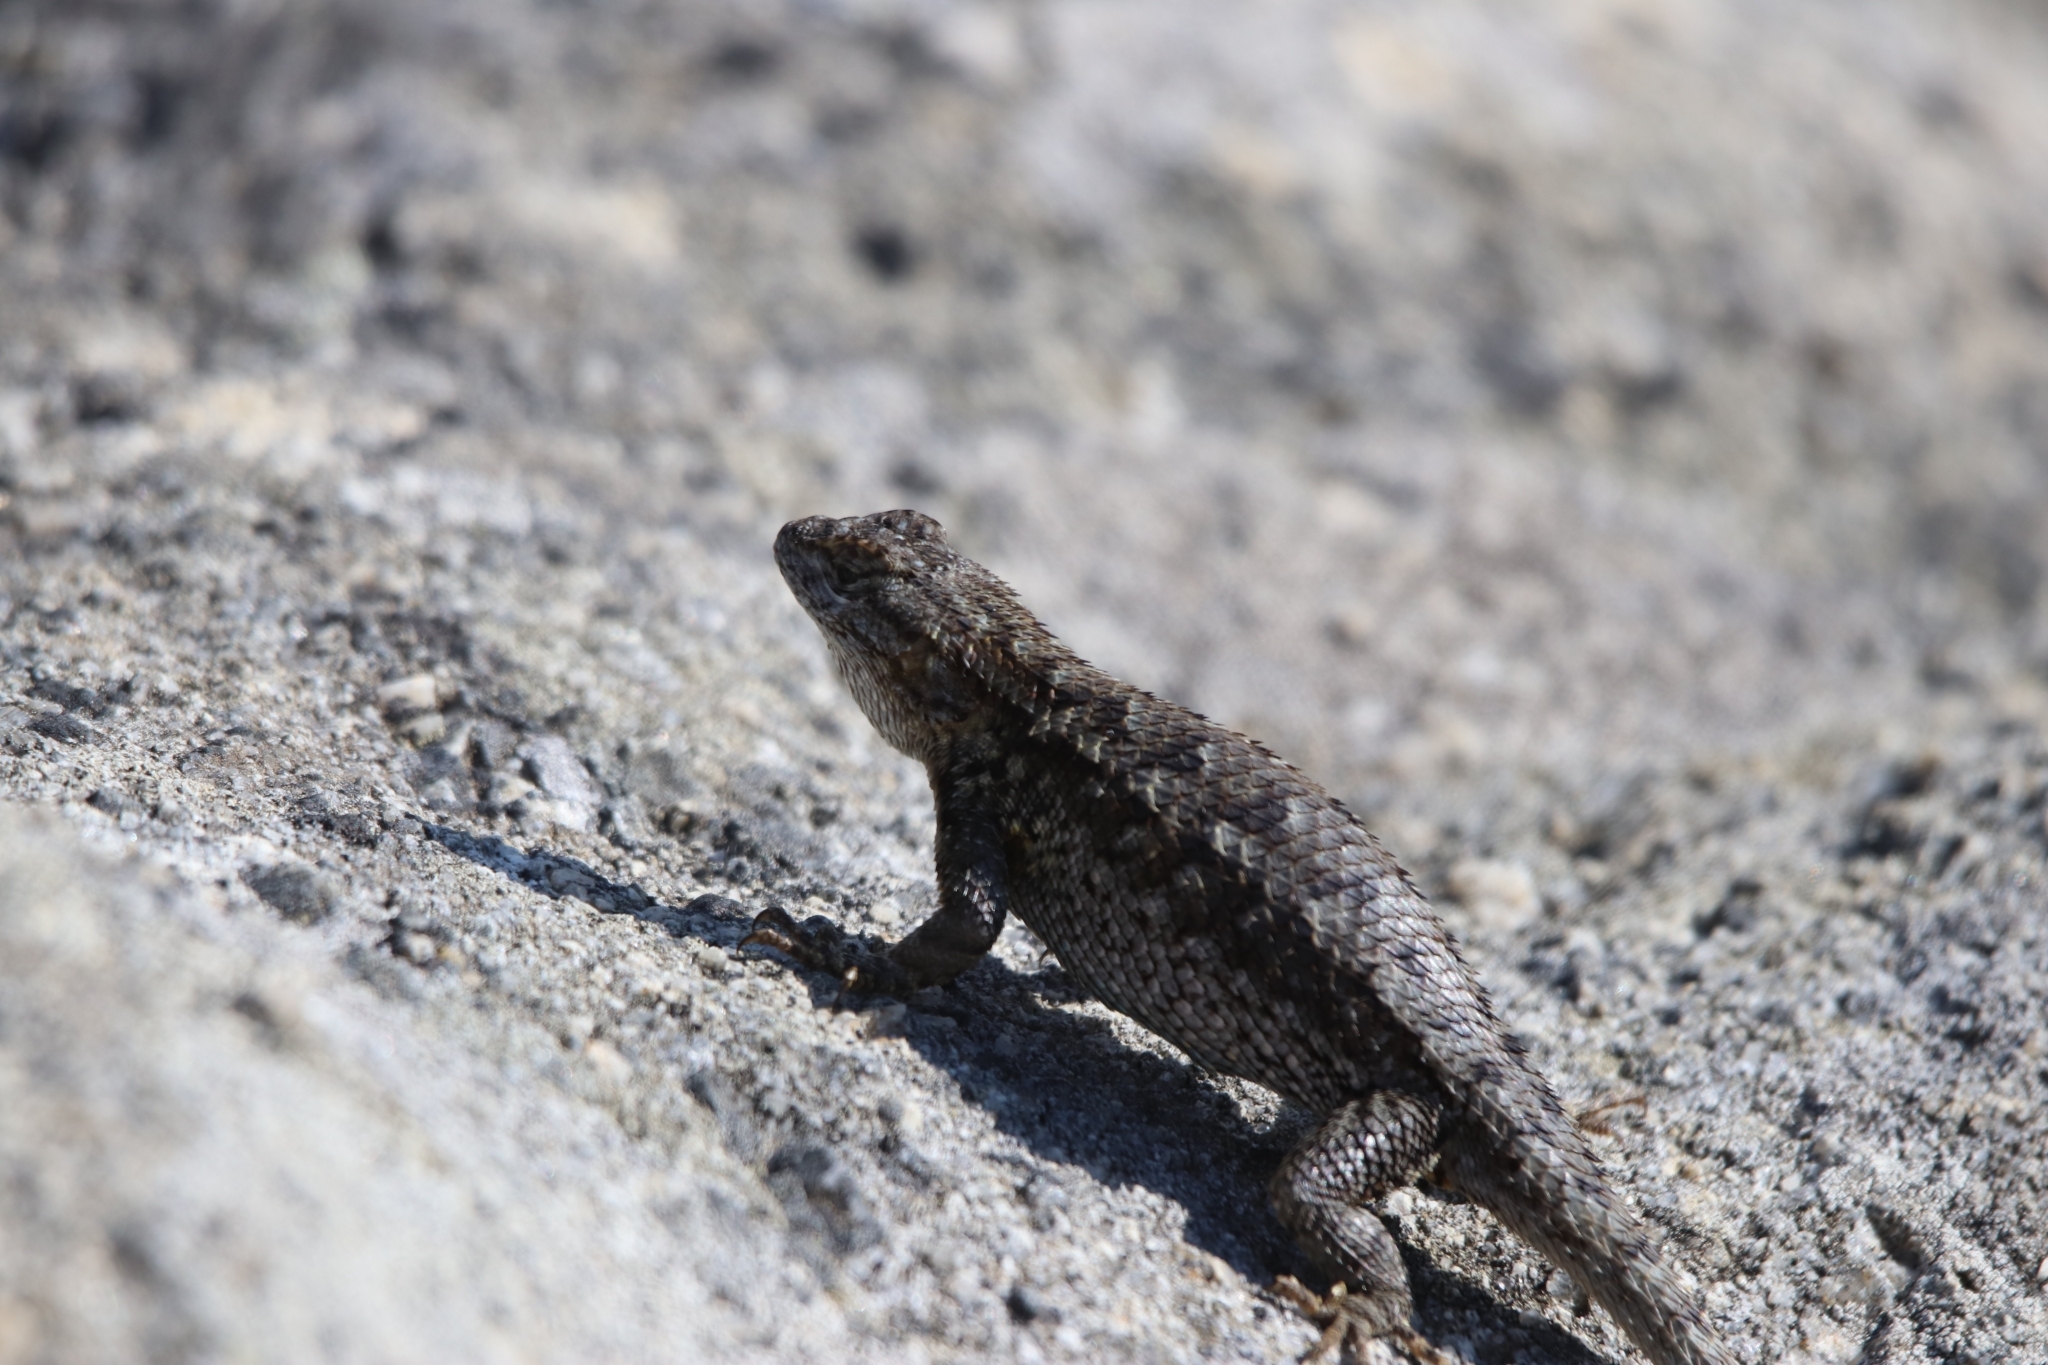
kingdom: Animalia
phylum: Chordata
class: Squamata
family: Phrynosomatidae
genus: Sceloporus
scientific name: Sceloporus occidentalis
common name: Western fence lizard
